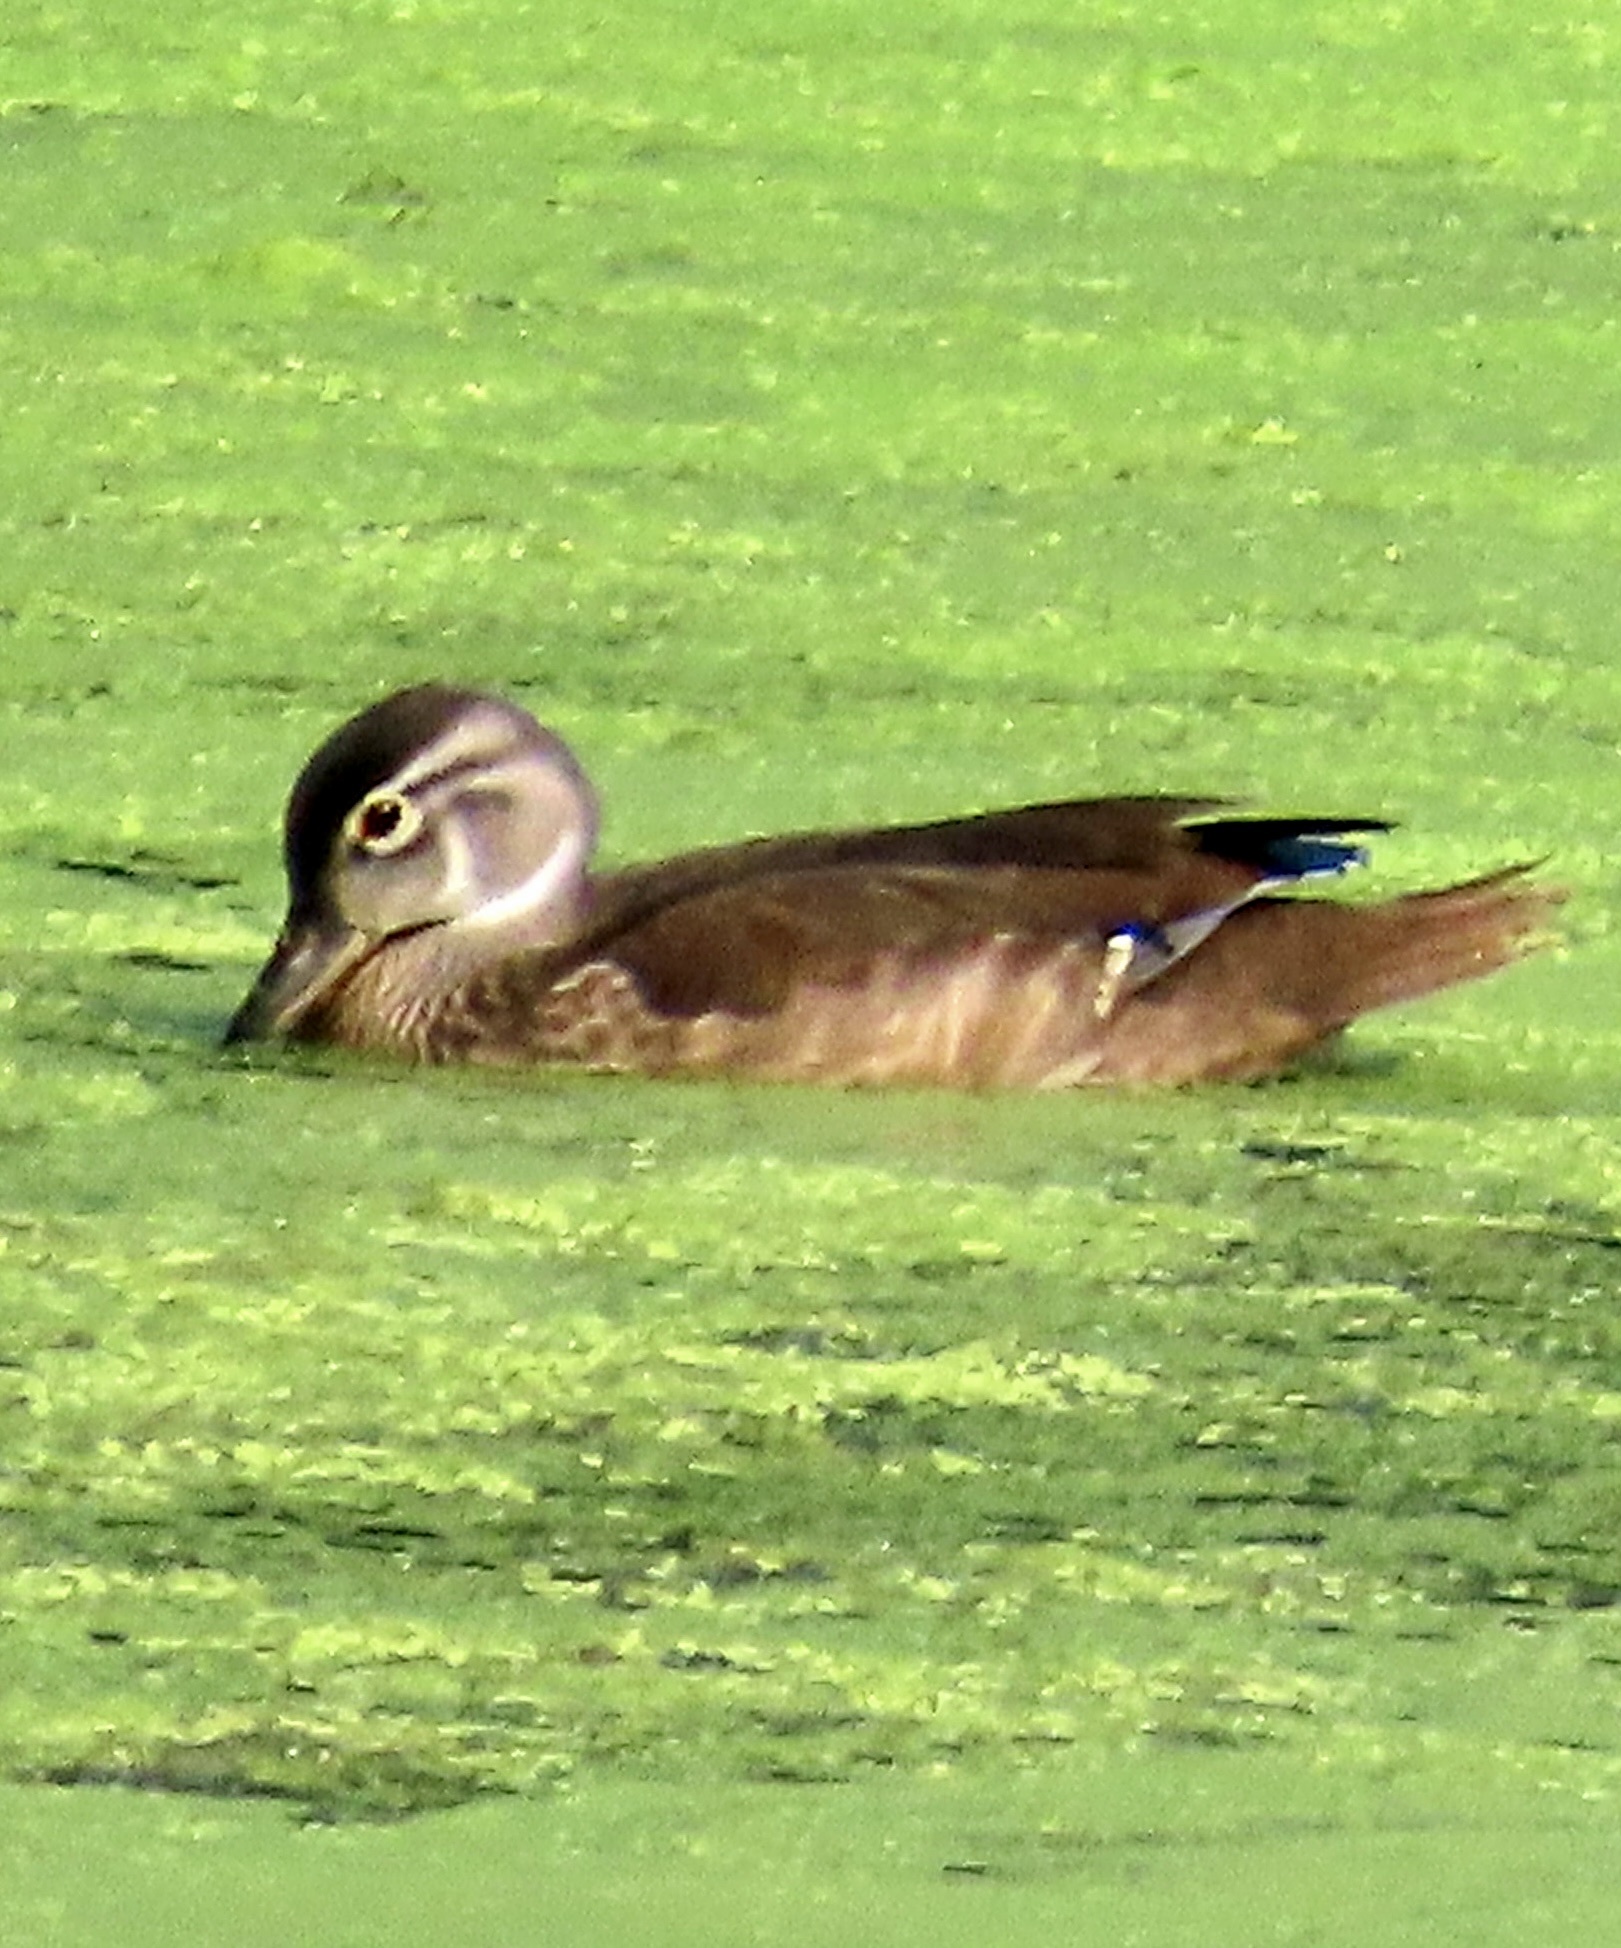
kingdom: Animalia
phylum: Chordata
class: Aves
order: Anseriformes
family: Anatidae
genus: Aix
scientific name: Aix sponsa
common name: Wood duck
